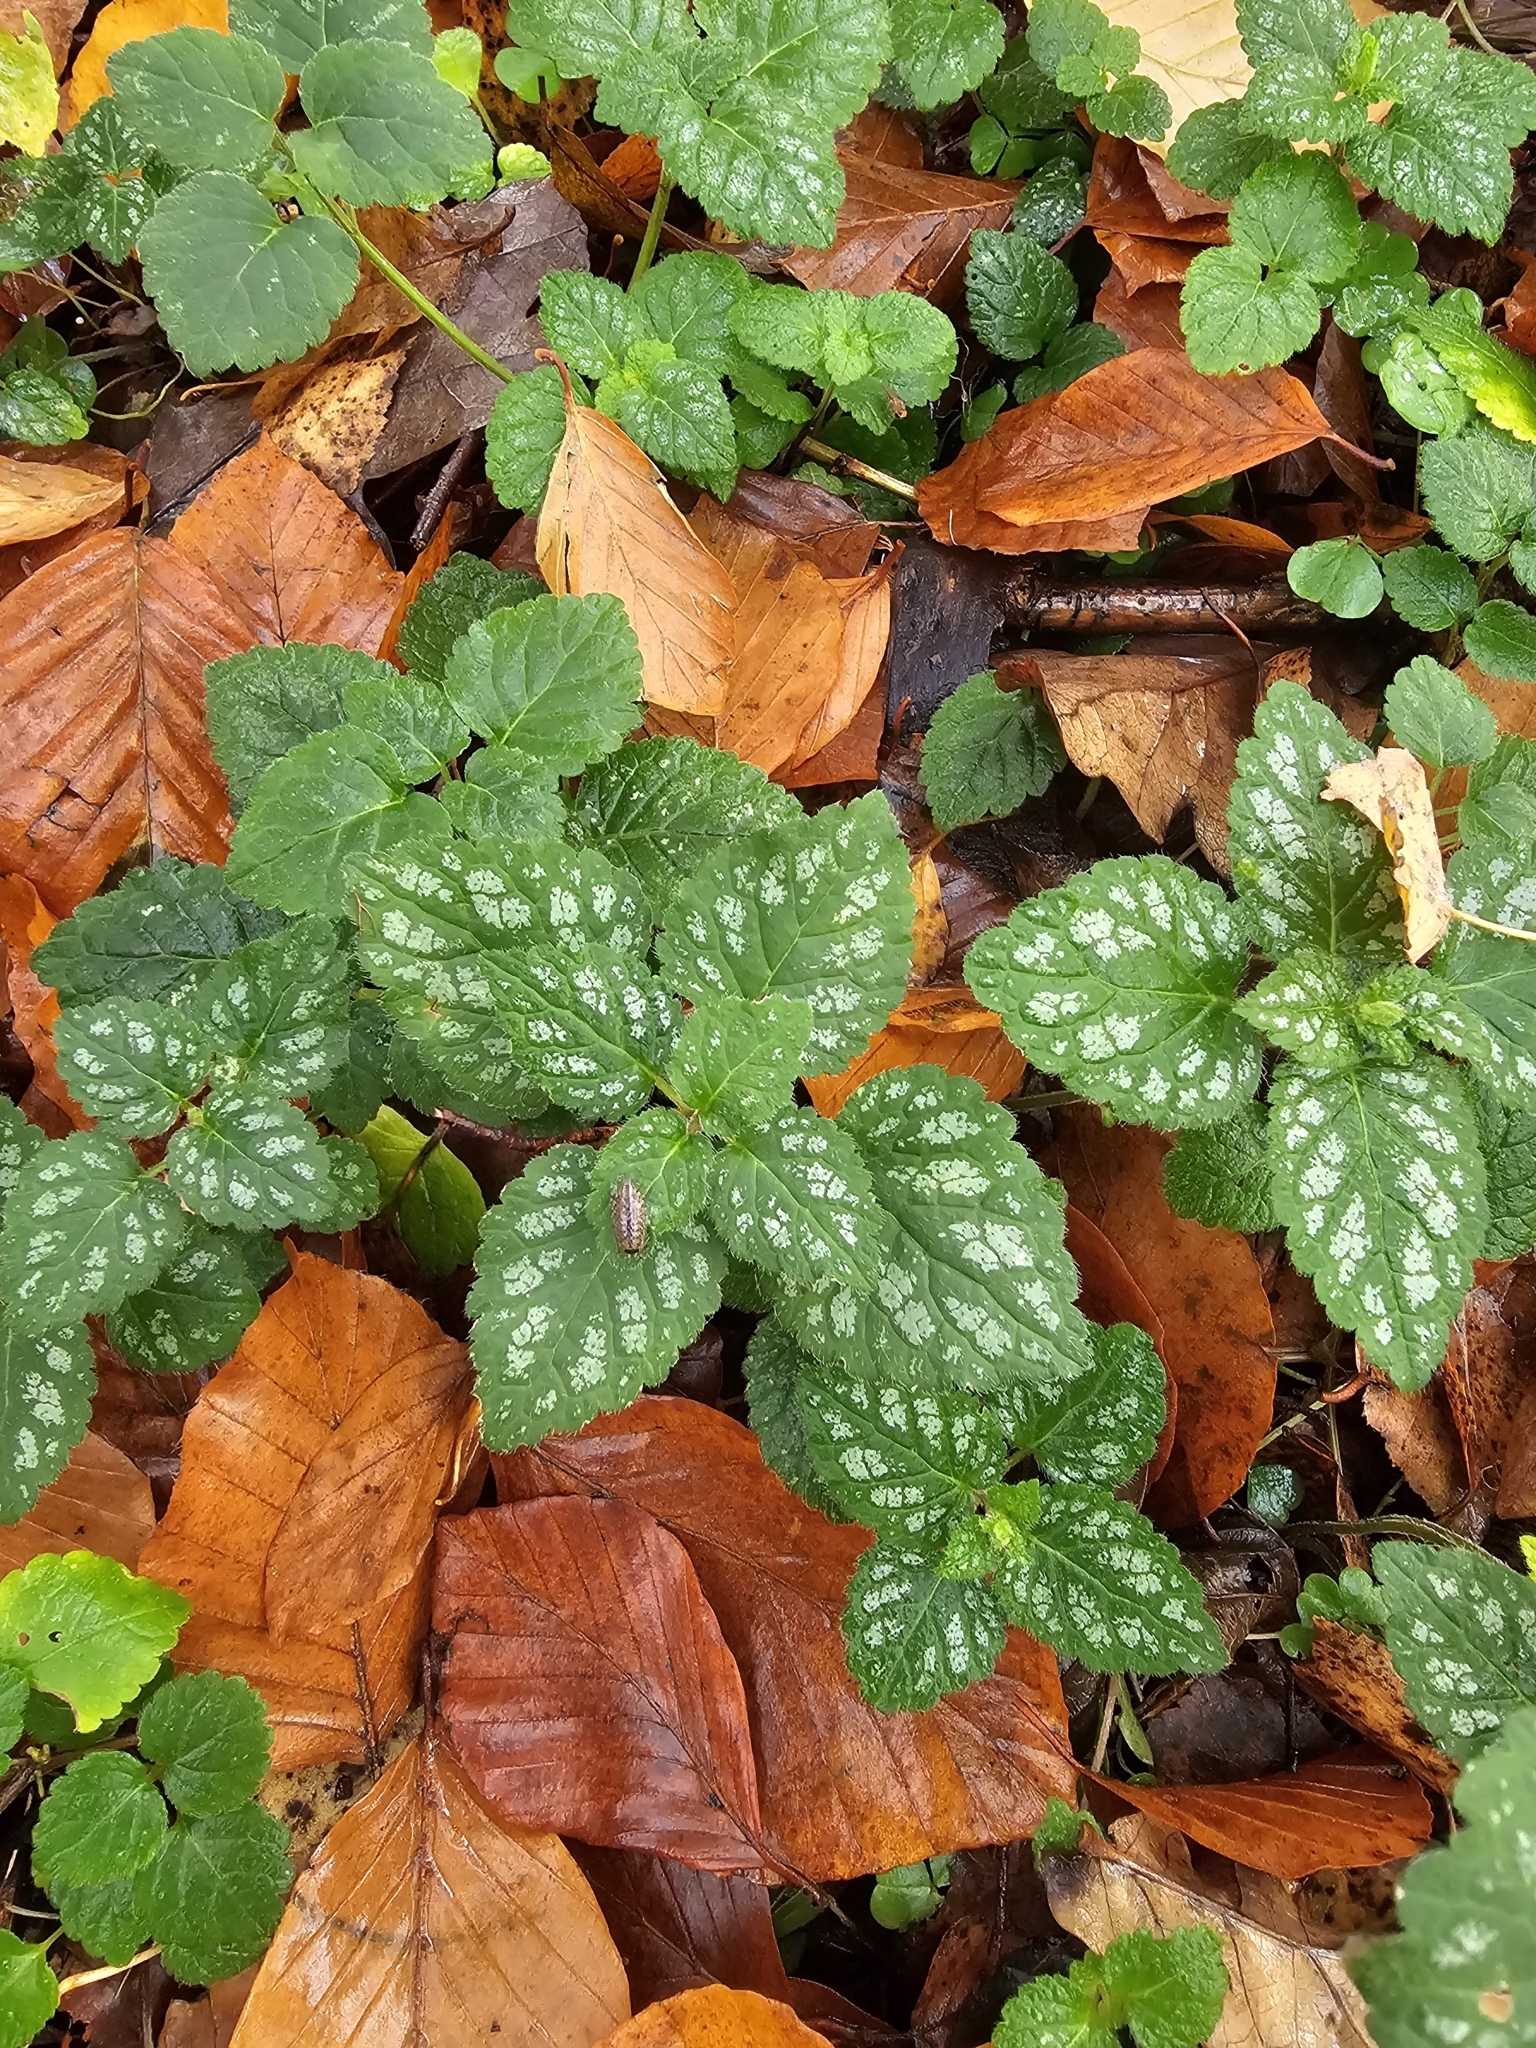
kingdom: Plantae
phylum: Tracheophyta
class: Magnoliopsida
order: Lamiales
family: Lamiaceae
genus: Lamium
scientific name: Lamium galeobdolon
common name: Yellow archangel
